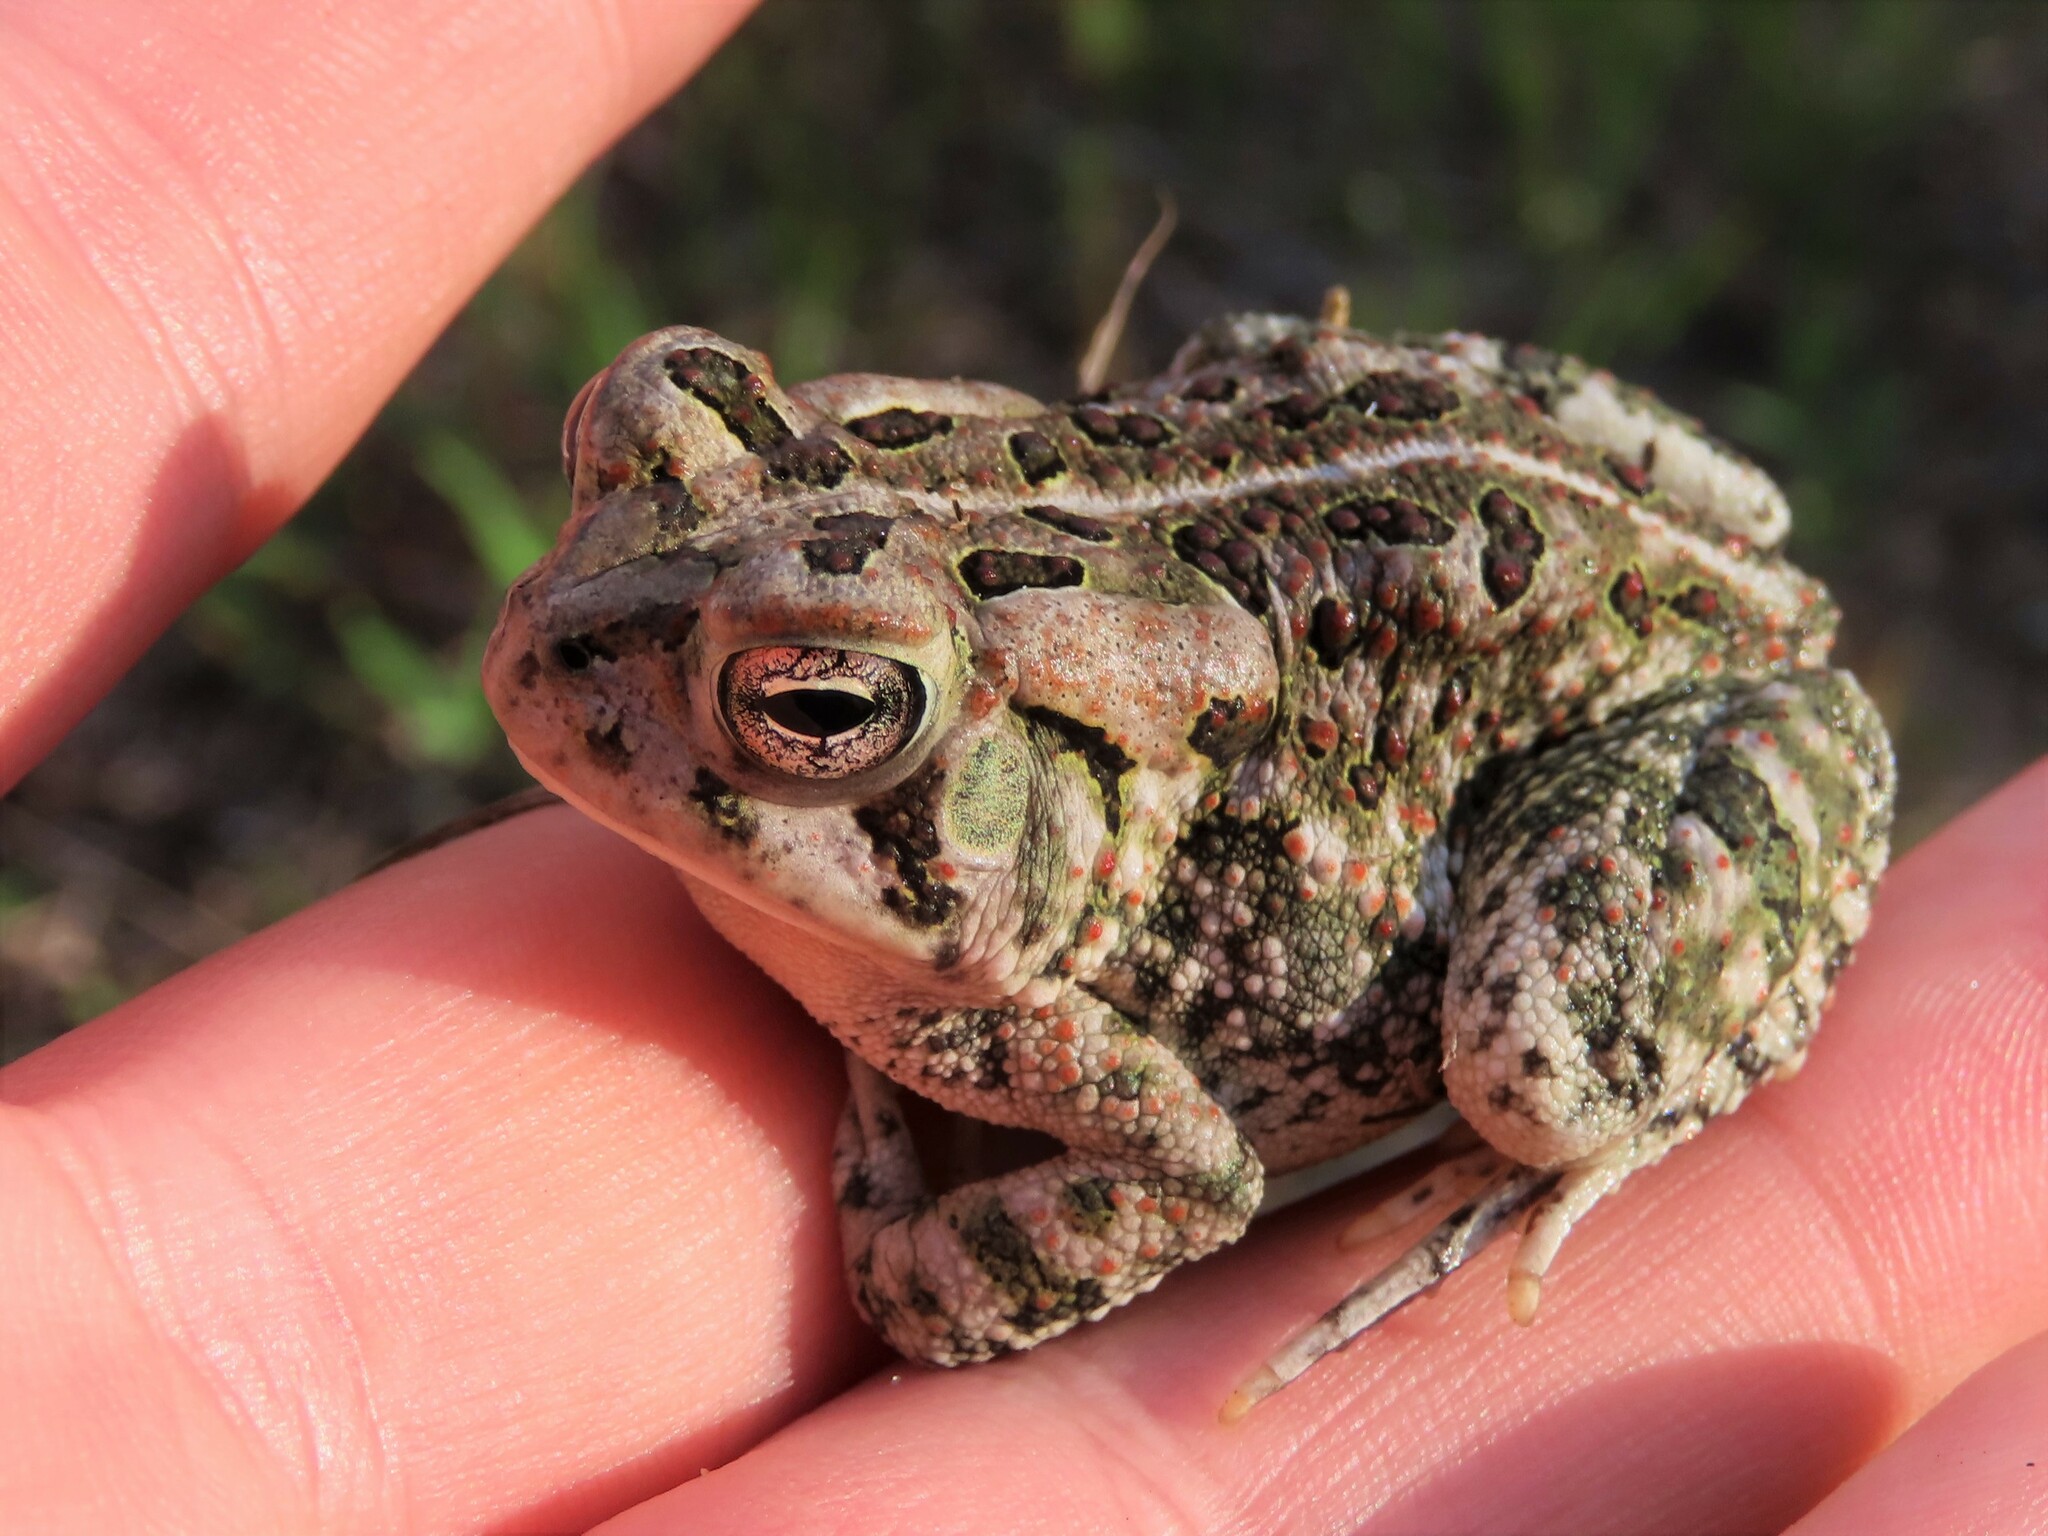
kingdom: Animalia
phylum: Chordata
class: Amphibia
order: Anura
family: Bufonidae
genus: Anaxyrus
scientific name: Anaxyrus fowleri
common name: Fowler's toad
